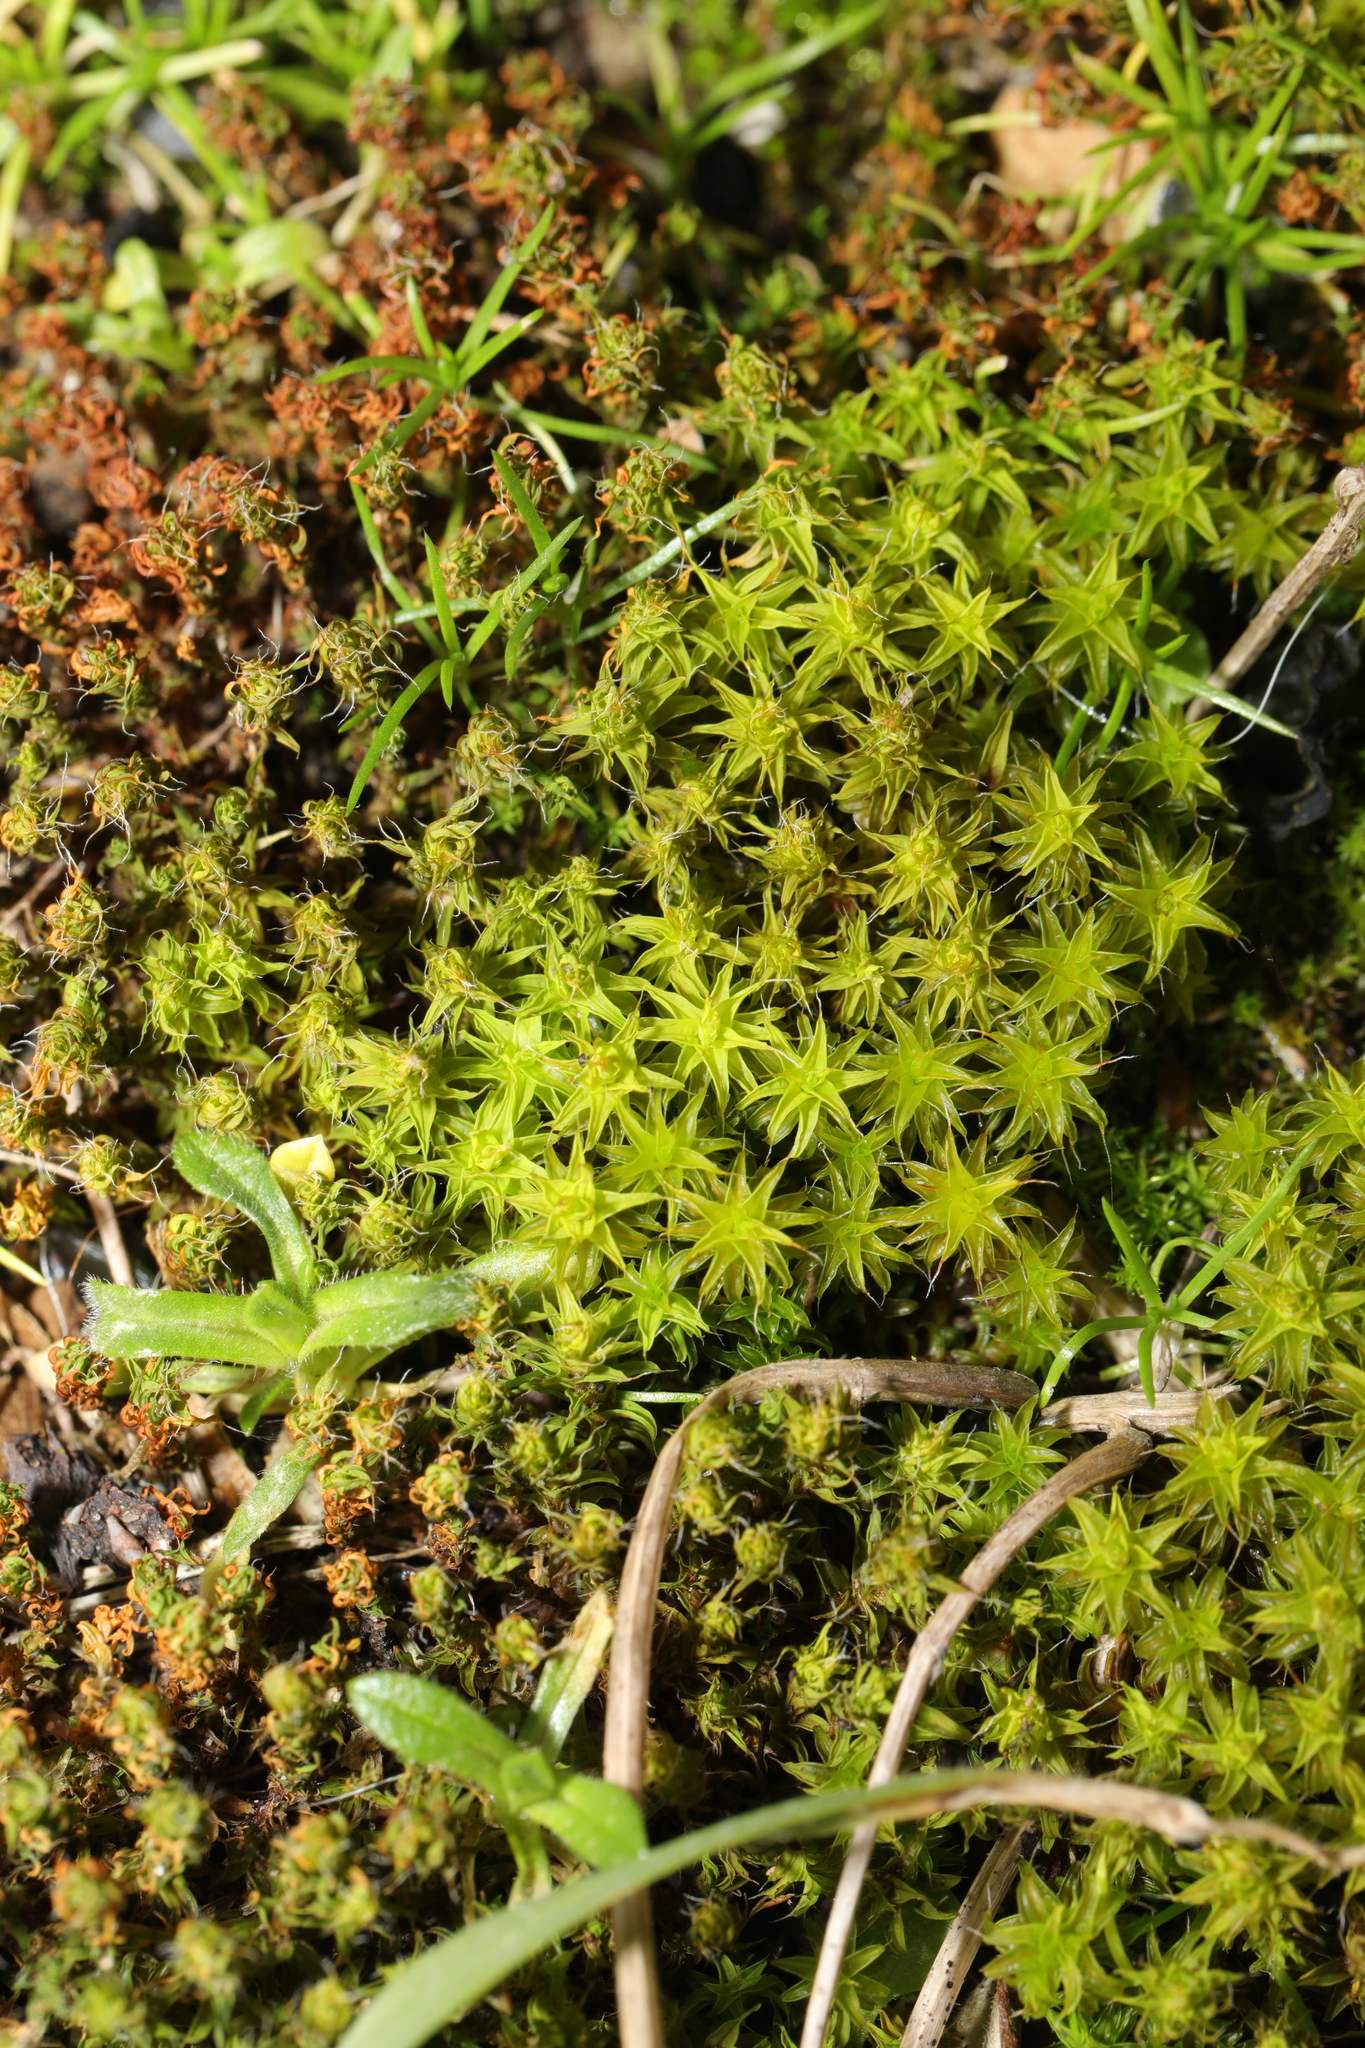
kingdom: Plantae
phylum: Bryophyta
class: Bryopsida
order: Pottiales
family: Pottiaceae
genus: Syntrichia
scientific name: Syntrichia ruralis
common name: Sidewalk screw moss
